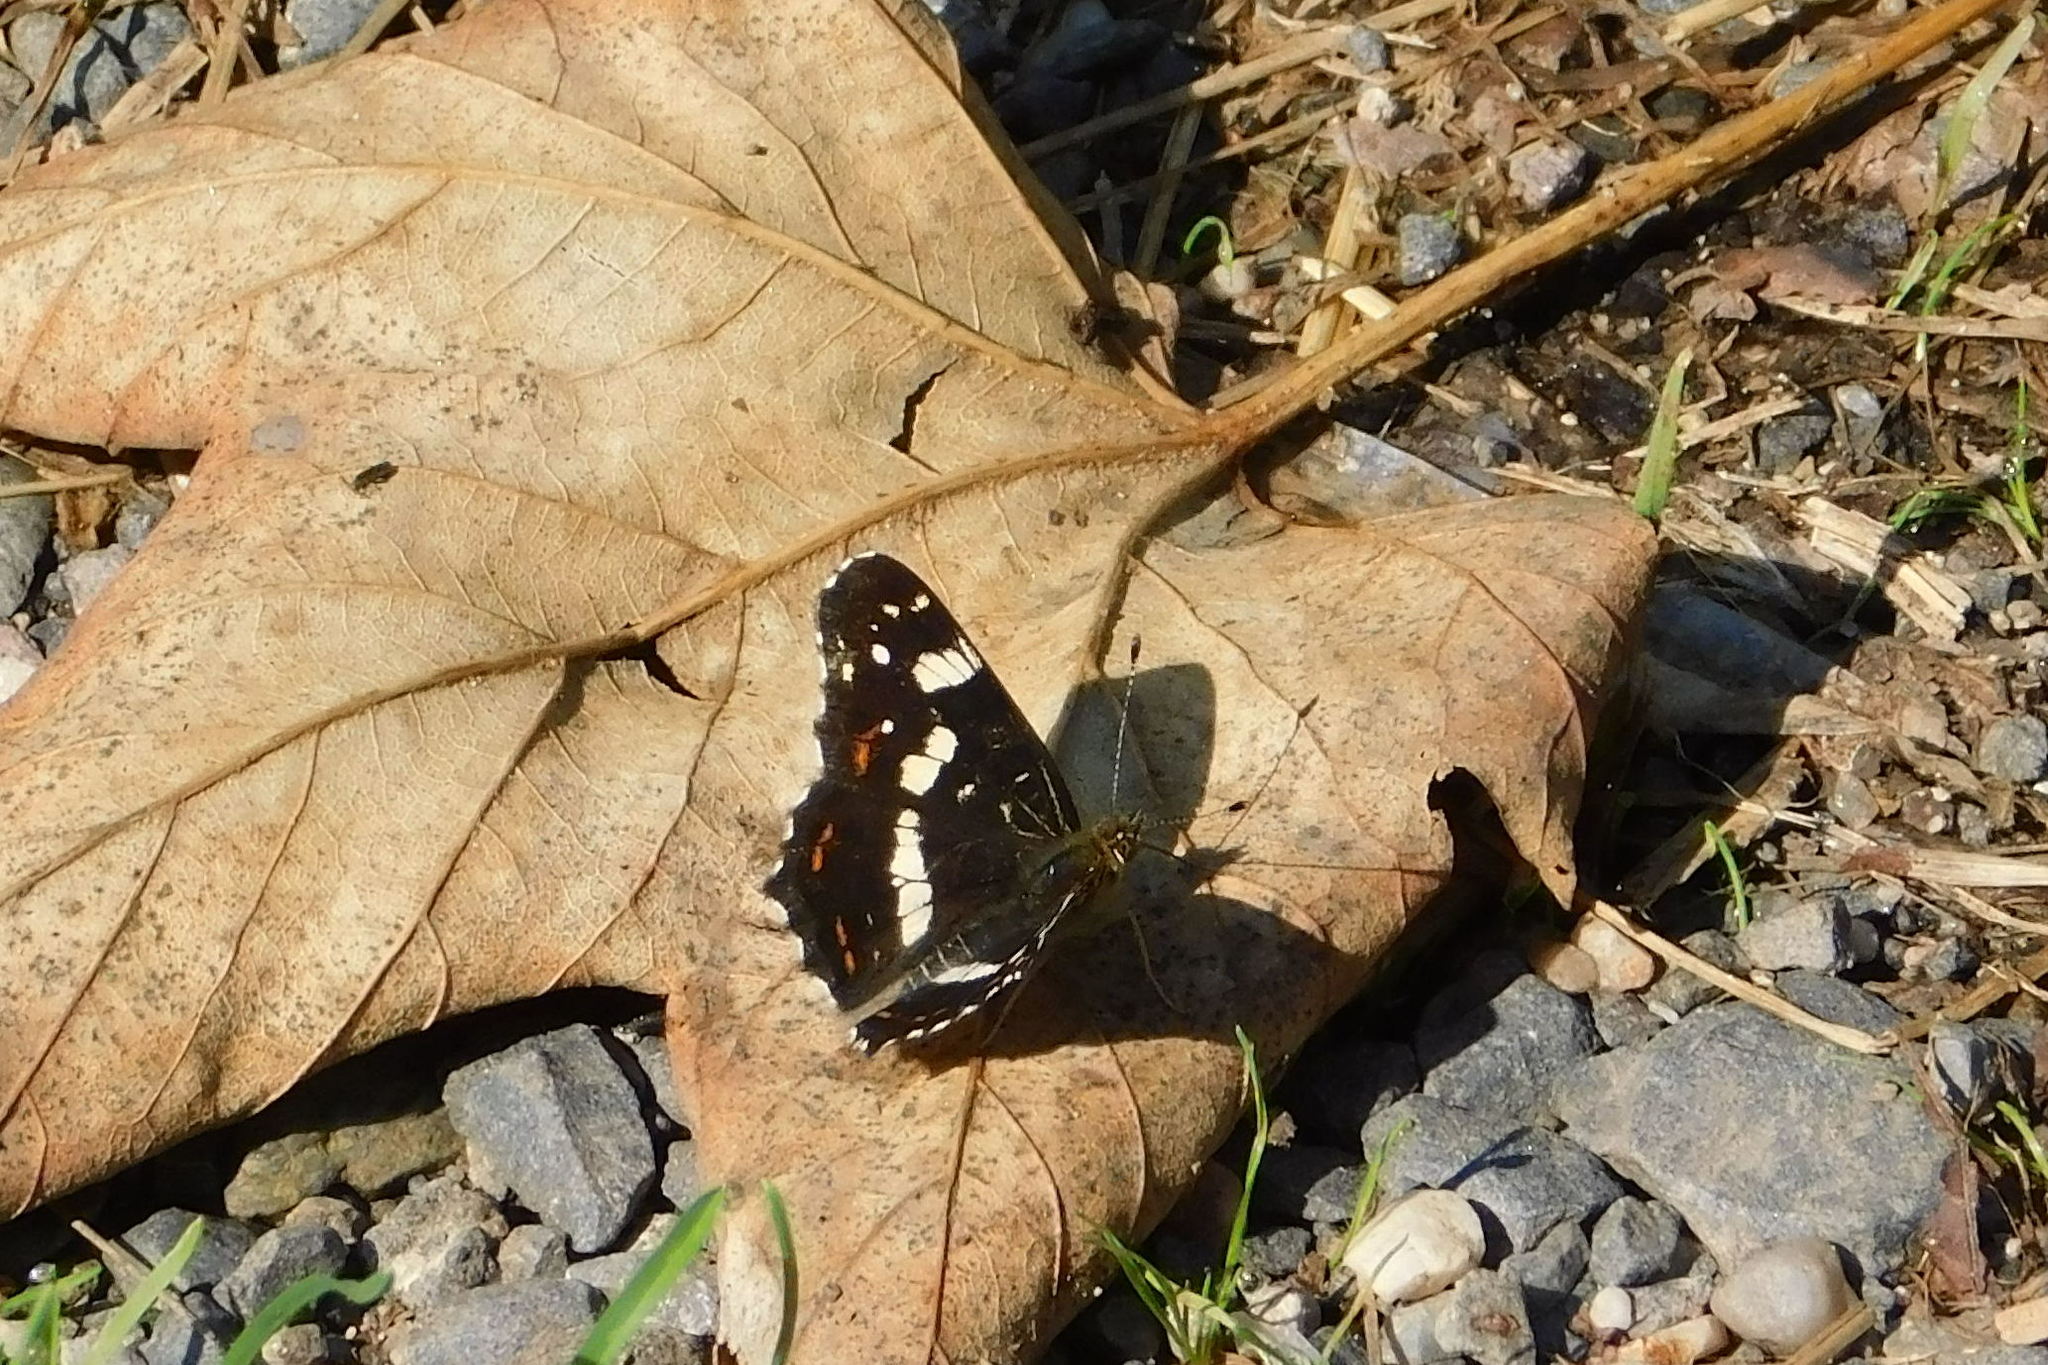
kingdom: Animalia
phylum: Arthropoda
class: Insecta
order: Lepidoptera
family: Nymphalidae
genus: Araschnia
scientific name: Araschnia levana
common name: Map butterfly
